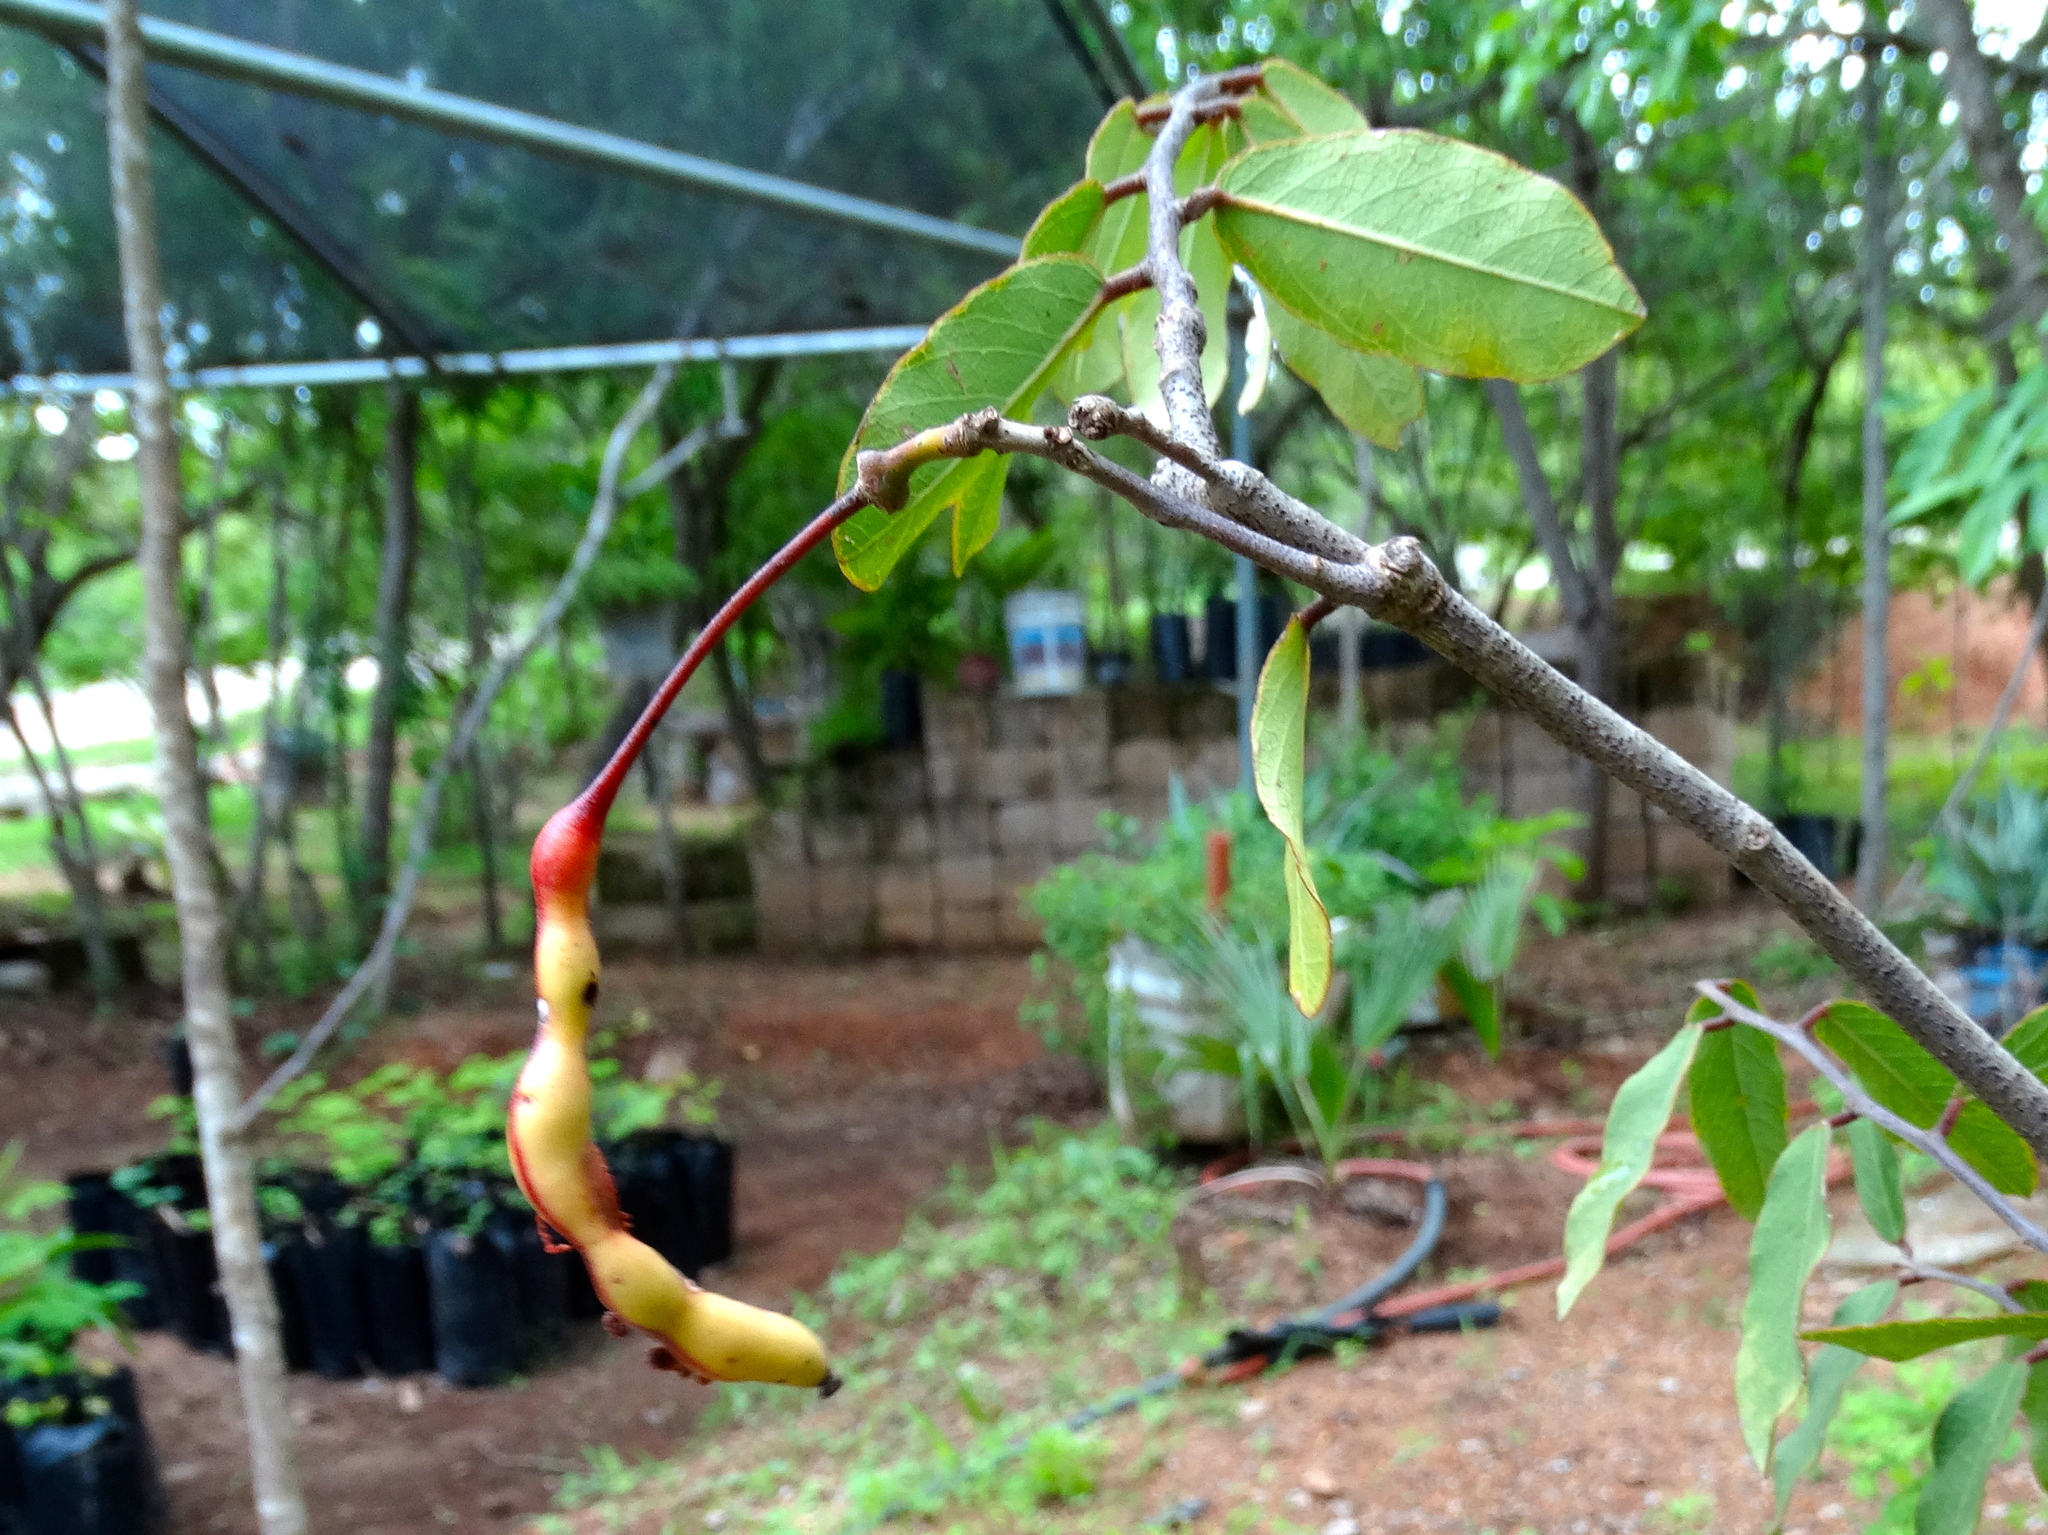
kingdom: Plantae
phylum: Tracheophyta
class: Magnoliopsida
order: Brassicales
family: Capparaceae
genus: Cynophalla
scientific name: Cynophalla flexuosa
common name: Capertree
